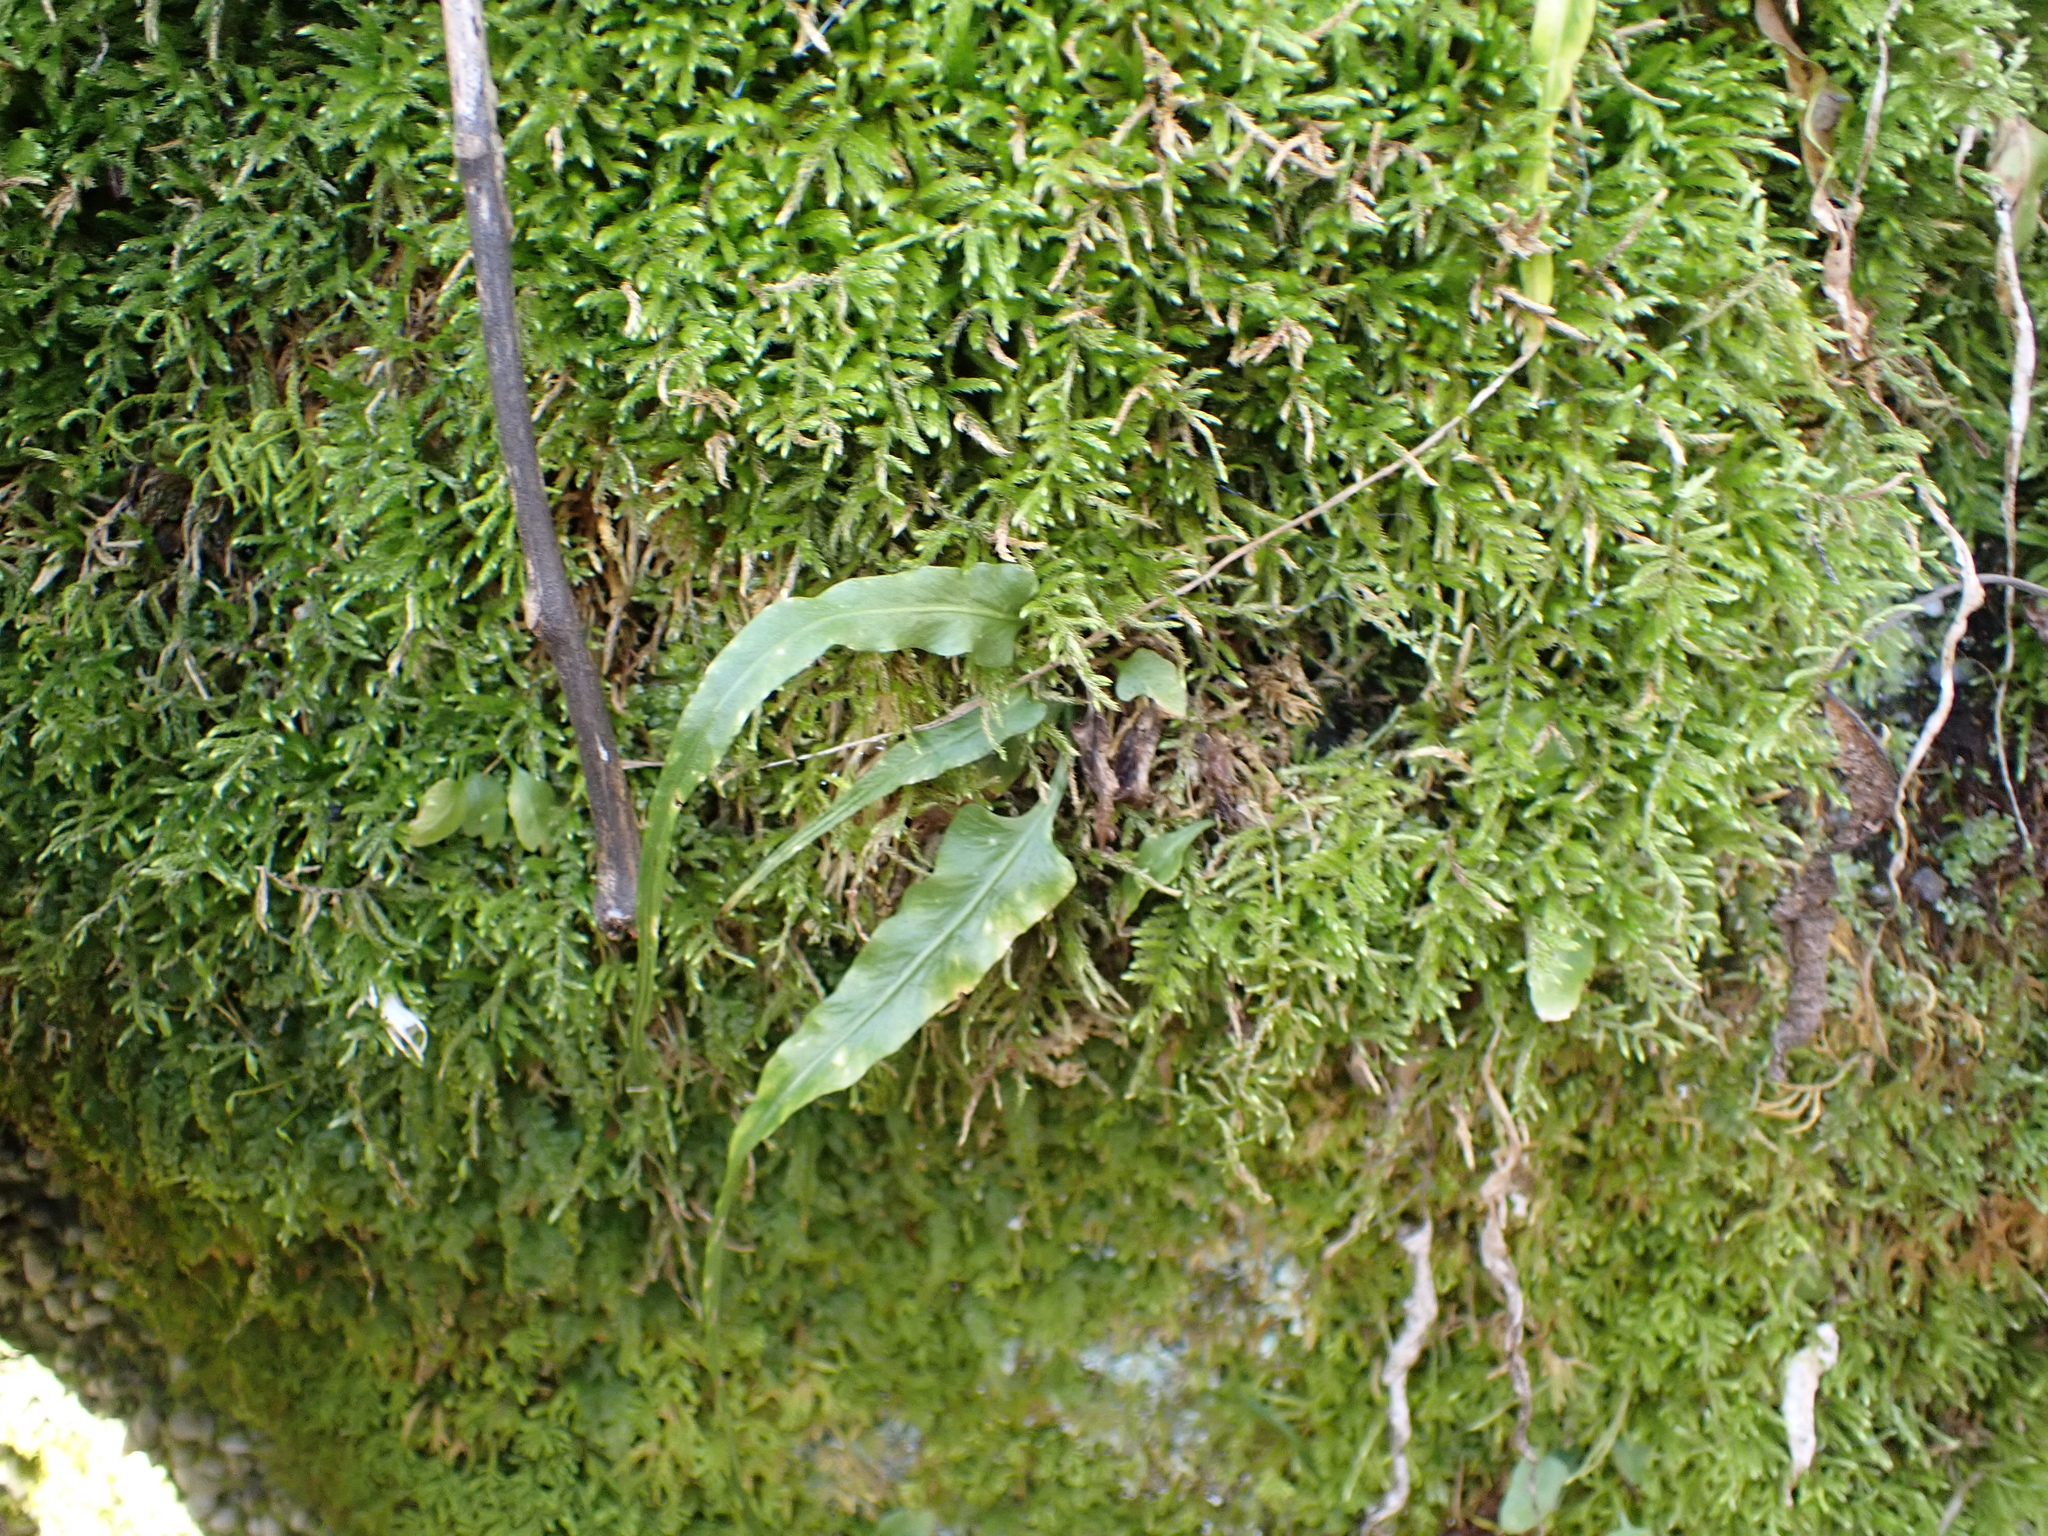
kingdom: Plantae
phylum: Tracheophyta
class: Polypodiopsida
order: Polypodiales
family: Aspleniaceae
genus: Asplenium
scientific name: Asplenium rhizophyllum
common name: Walking fern
